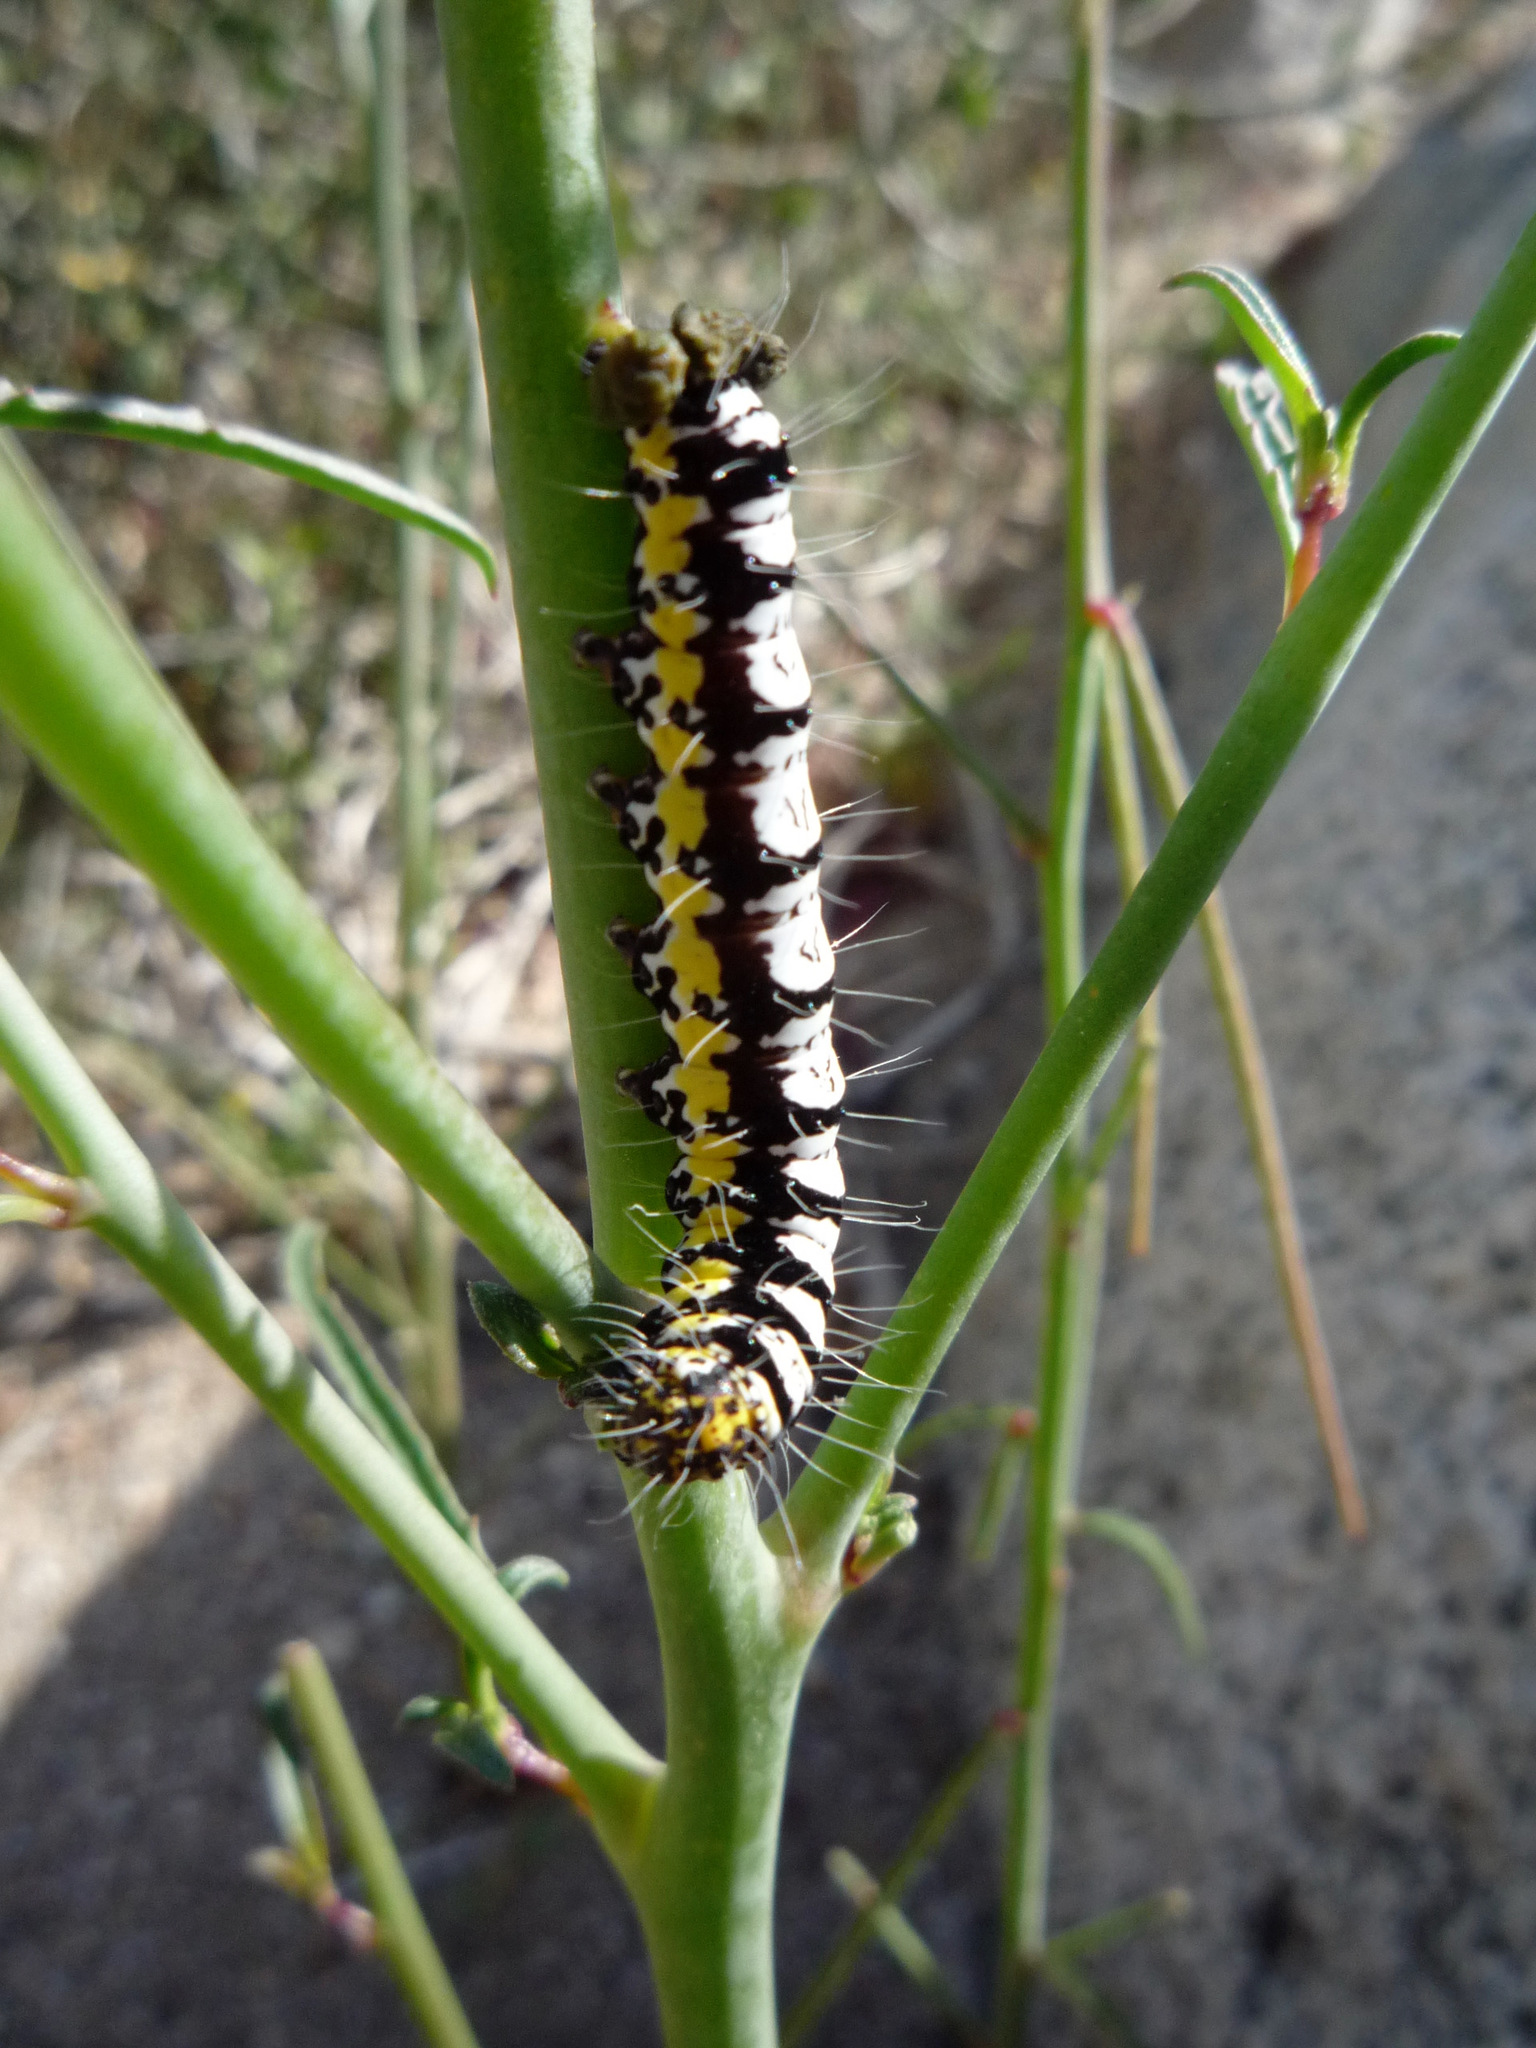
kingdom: Animalia
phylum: Arthropoda
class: Insecta
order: Lepidoptera
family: Noctuidae
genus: Alypia
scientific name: Alypia ridingsii
